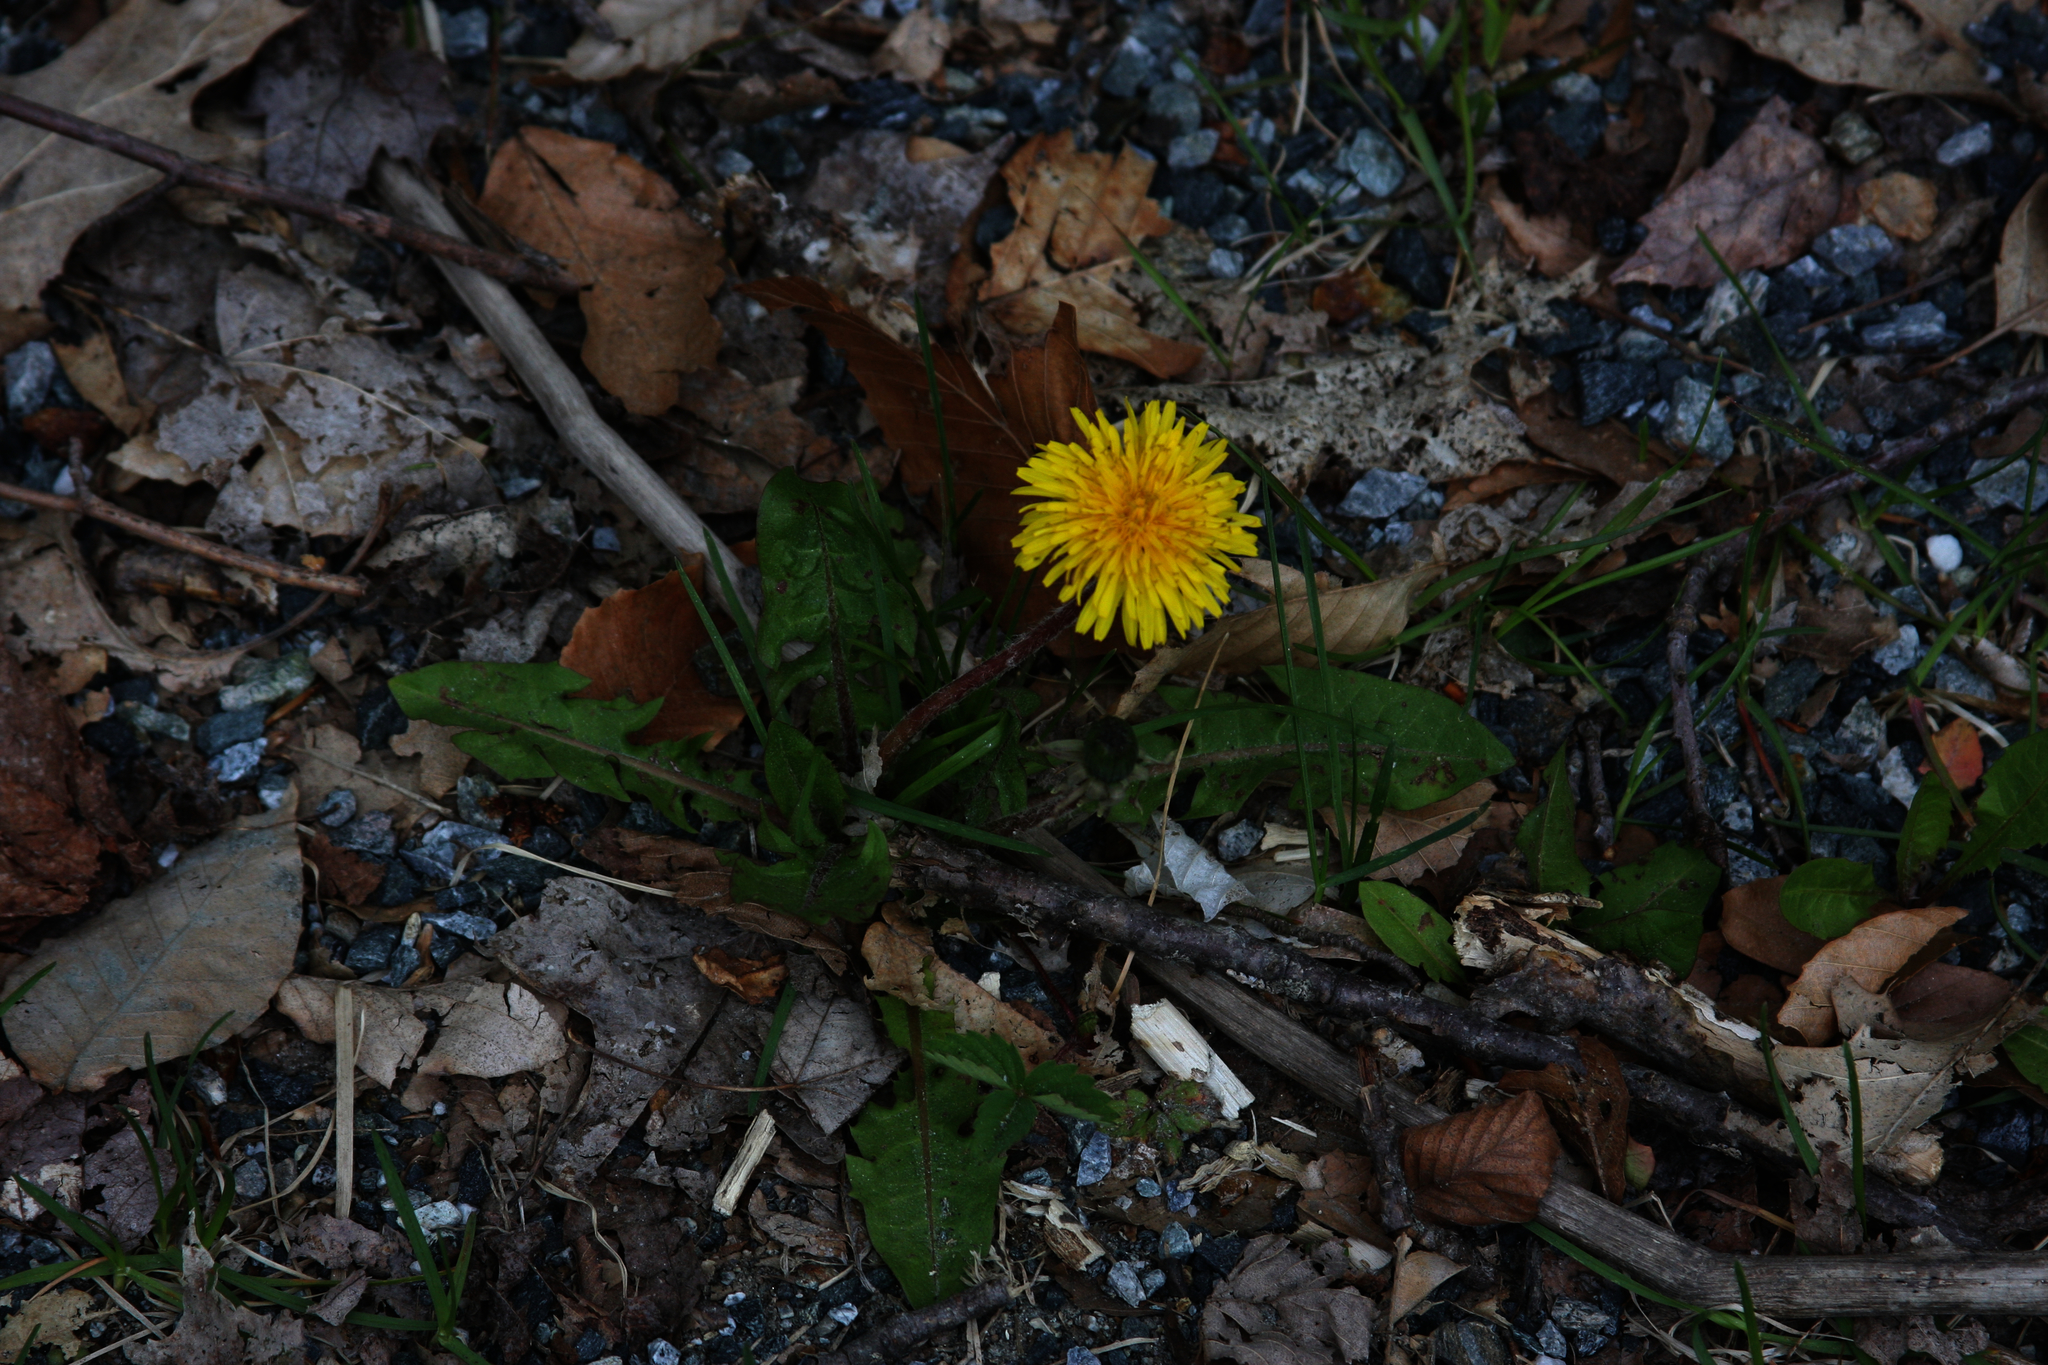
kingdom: Plantae
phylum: Tracheophyta
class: Magnoliopsida
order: Asterales
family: Asteraceae
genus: Taraxacum
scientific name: Taraxacum officinale
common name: Common dandelion
